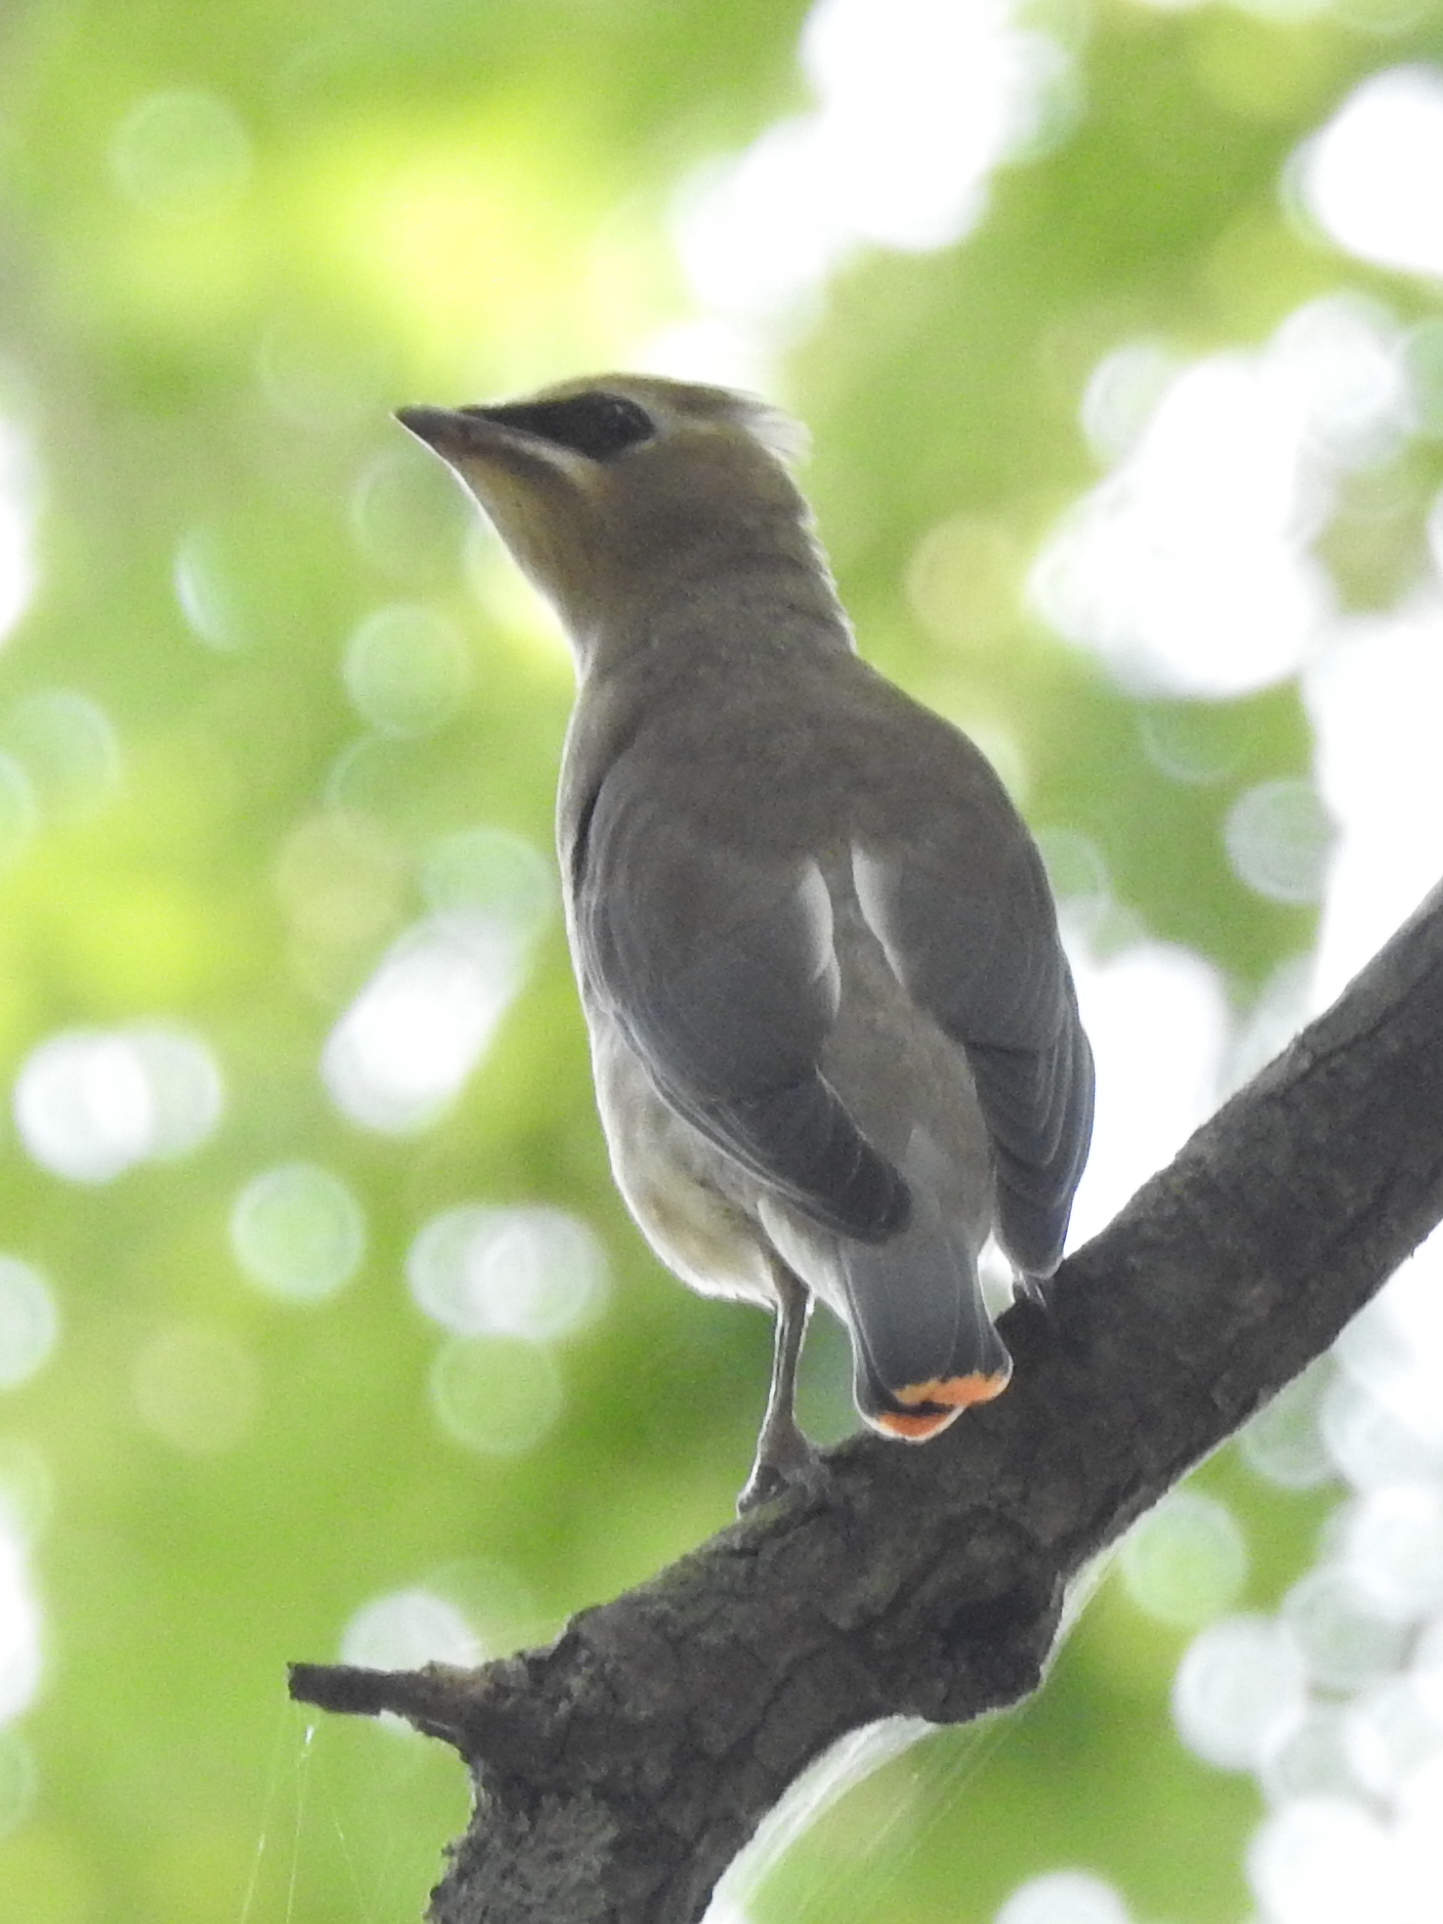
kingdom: Animalia
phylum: Chordata
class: Aves
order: Passeriformes
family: Bombycillidae
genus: Bombycilla
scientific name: Bombycilla cedrorum
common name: Cedar waxwing
